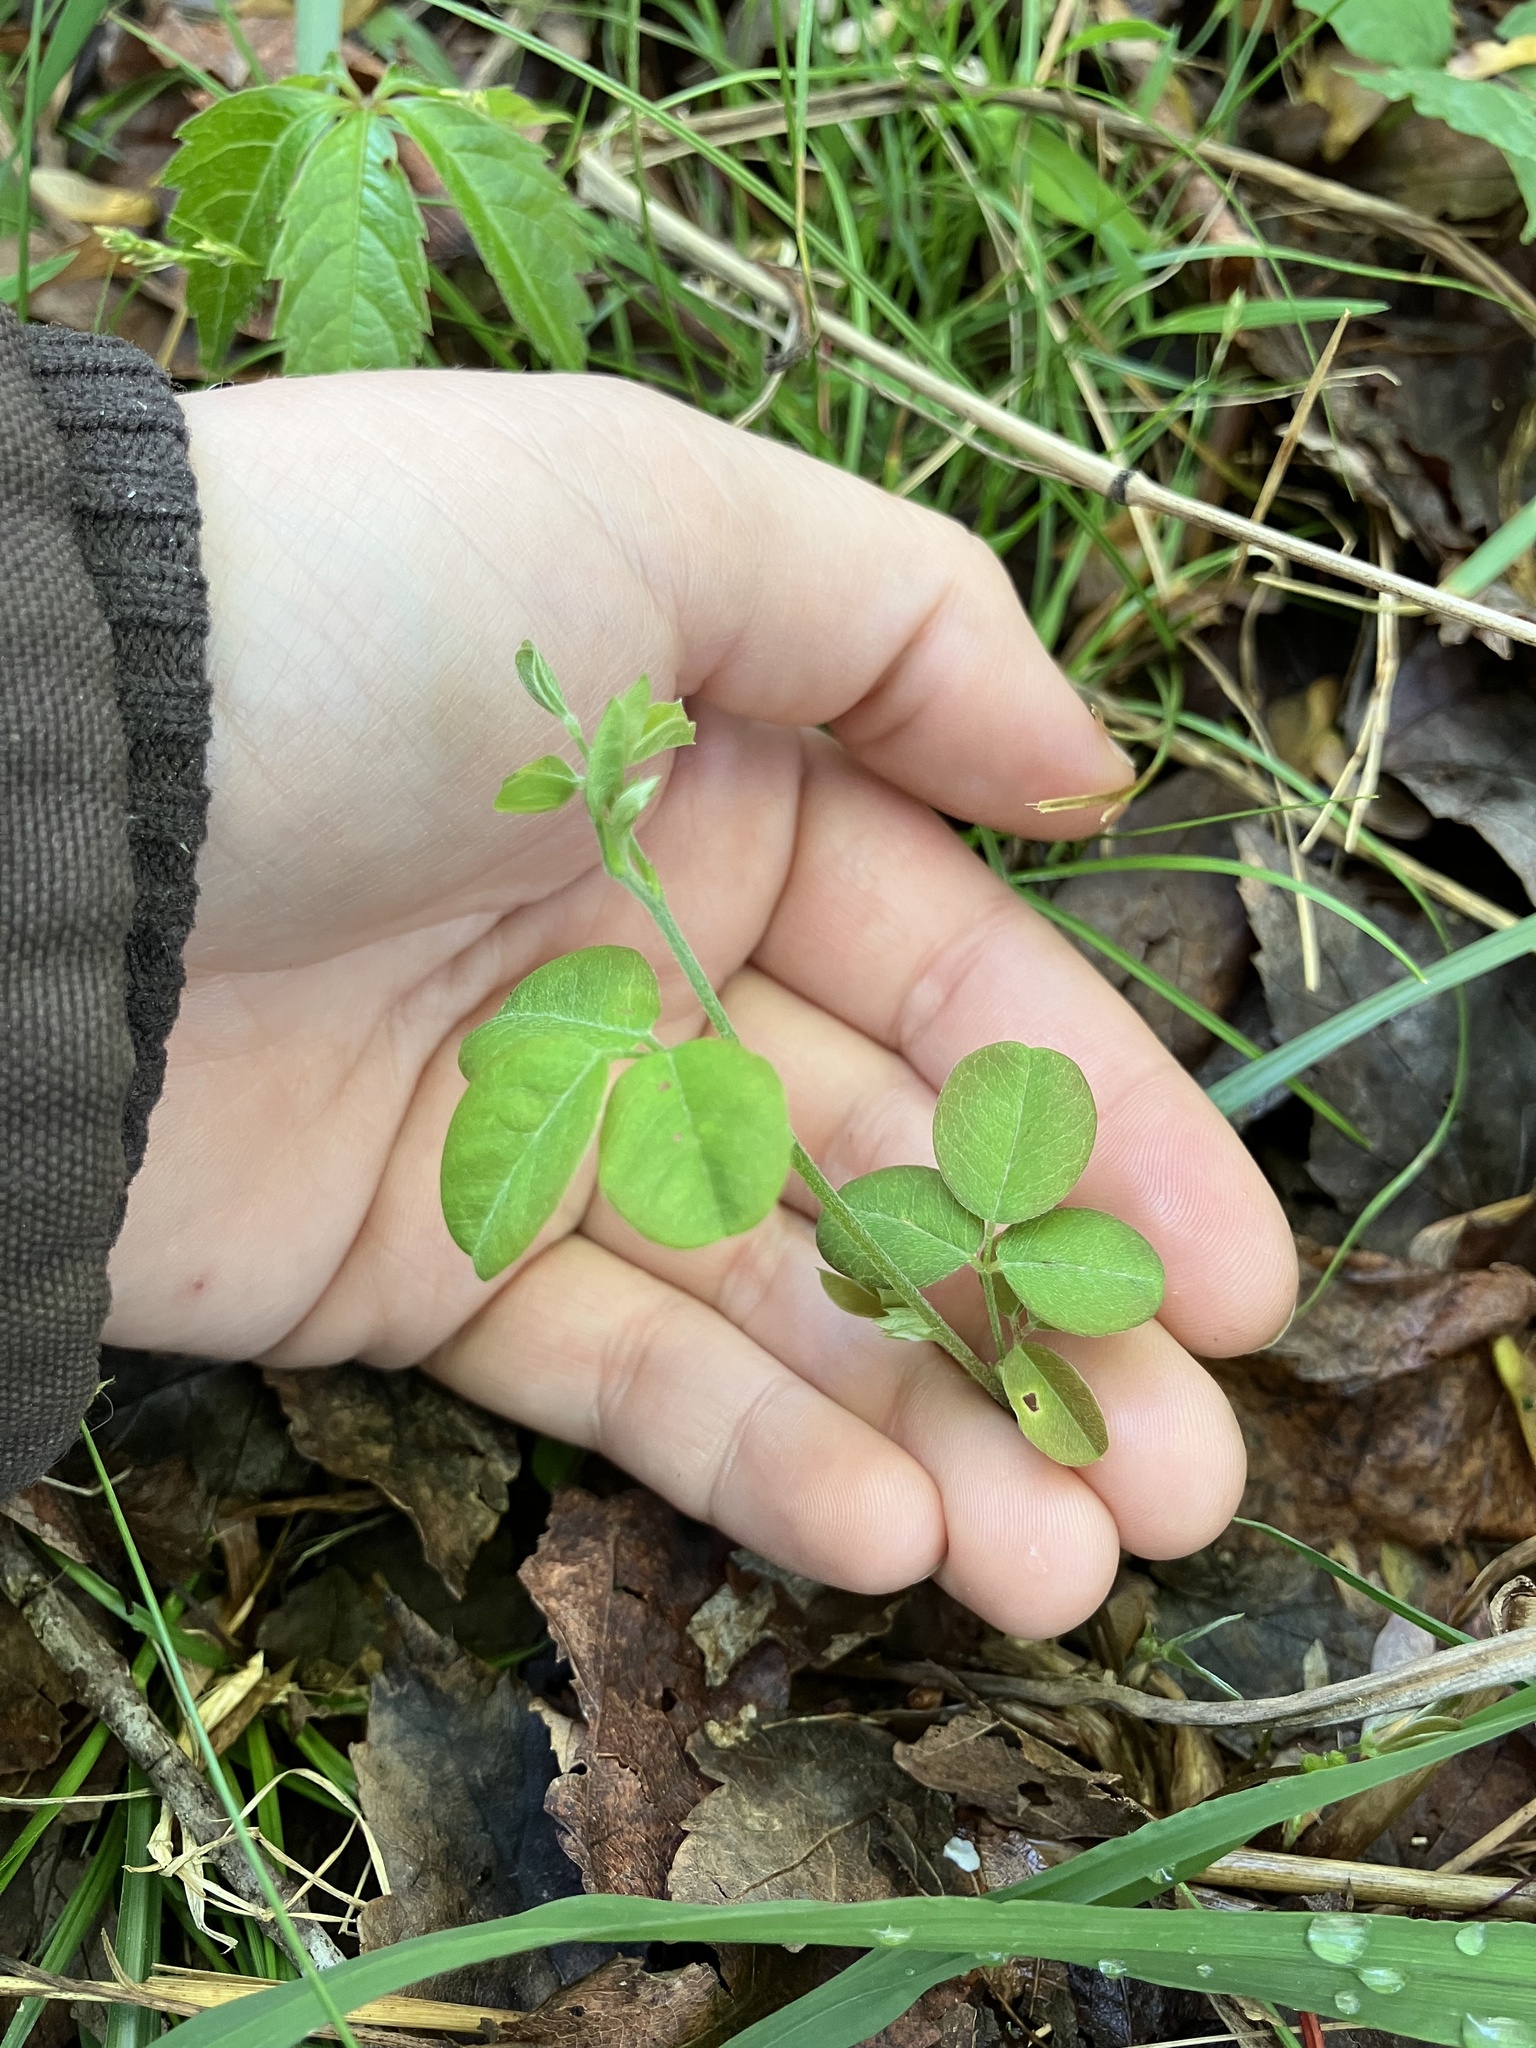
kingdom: Plantae
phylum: Tracheophyta
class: Magnoliopsida
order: Fabales
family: Fabaceae
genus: Lespedeza
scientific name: Lespedeza repens
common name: Creeping bush-clover
